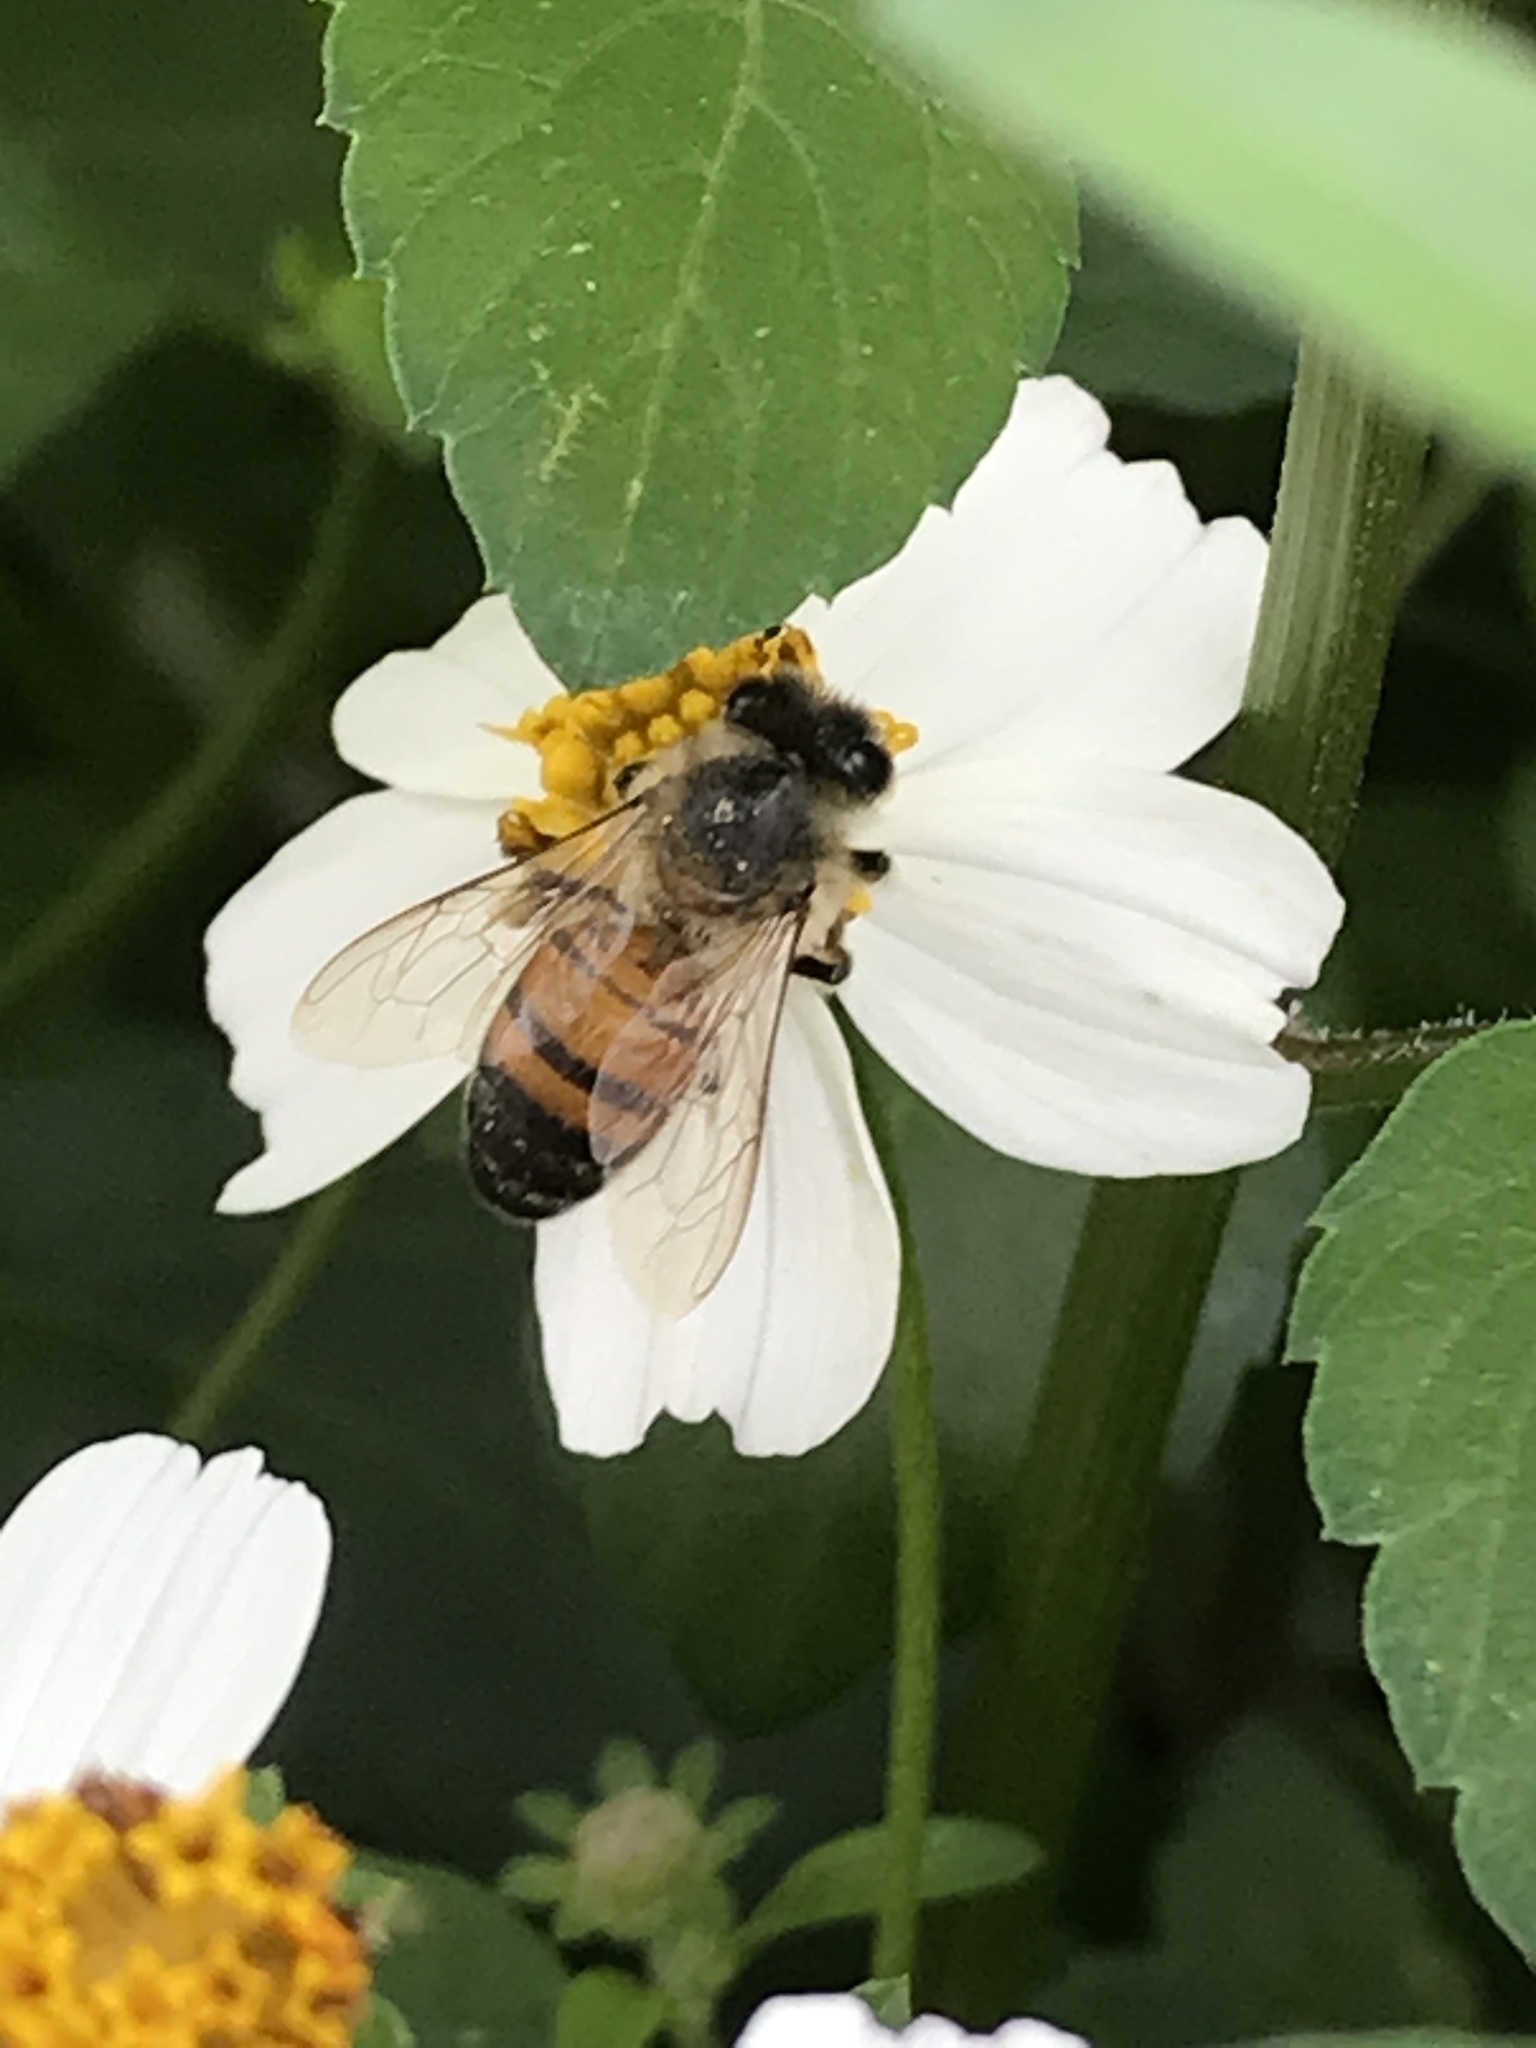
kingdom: Animalia
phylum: Arthropoda
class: Insecta
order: Hymenoptera
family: Apidae
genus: Apis
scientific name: Apis mellifera
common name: Honey bee
